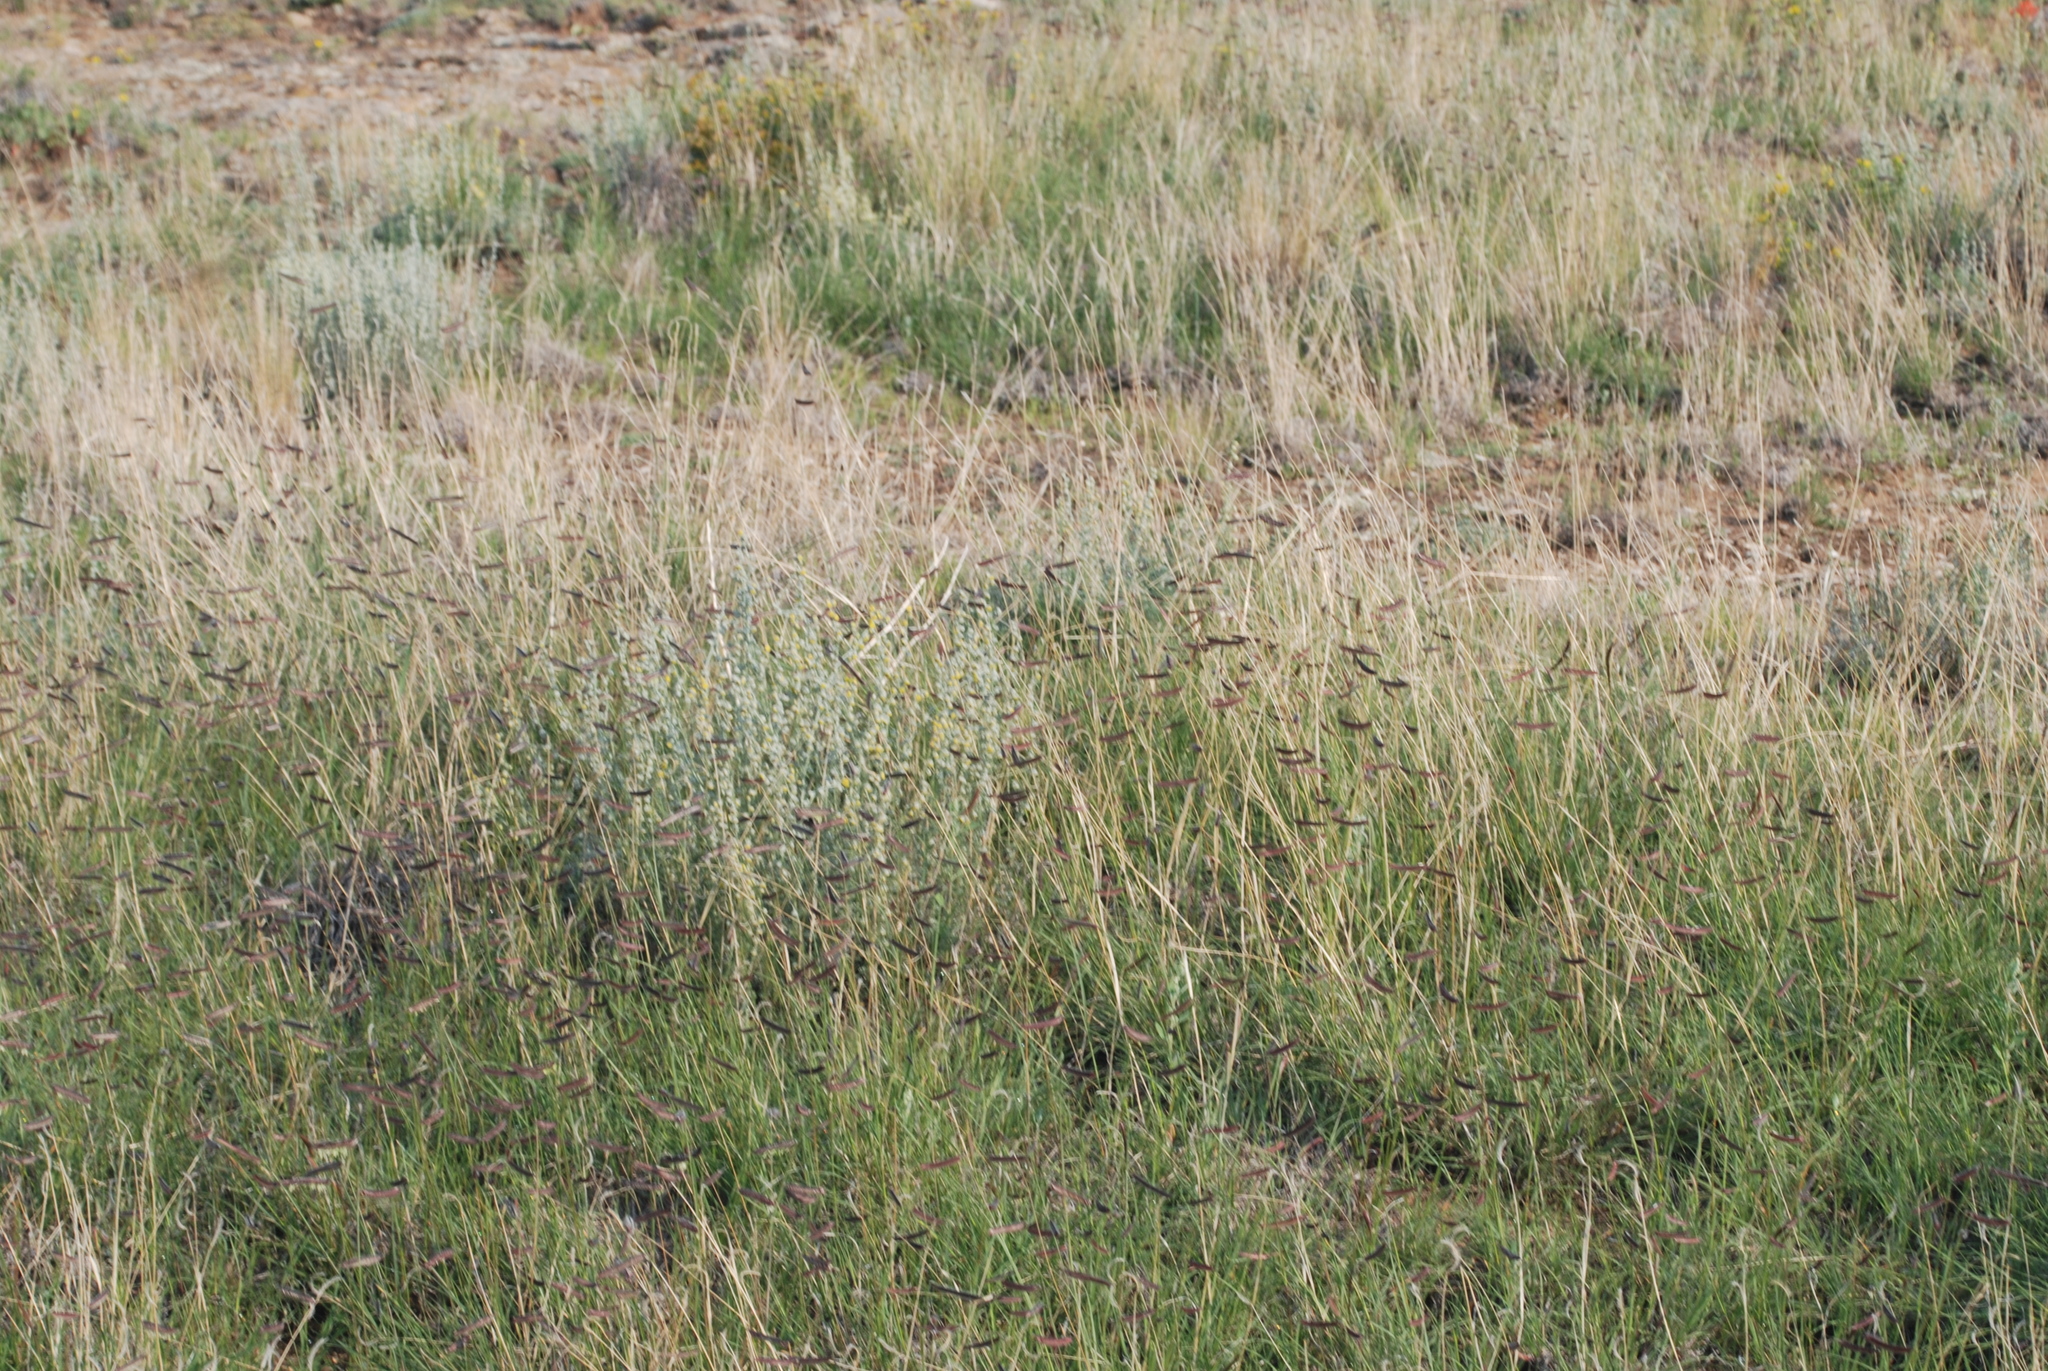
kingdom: Plantae
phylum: Tracheophyta
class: Liliopsida
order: Poales
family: Poaceae
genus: Bouteloua
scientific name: Bouteloua gracilis
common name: Blue grama
